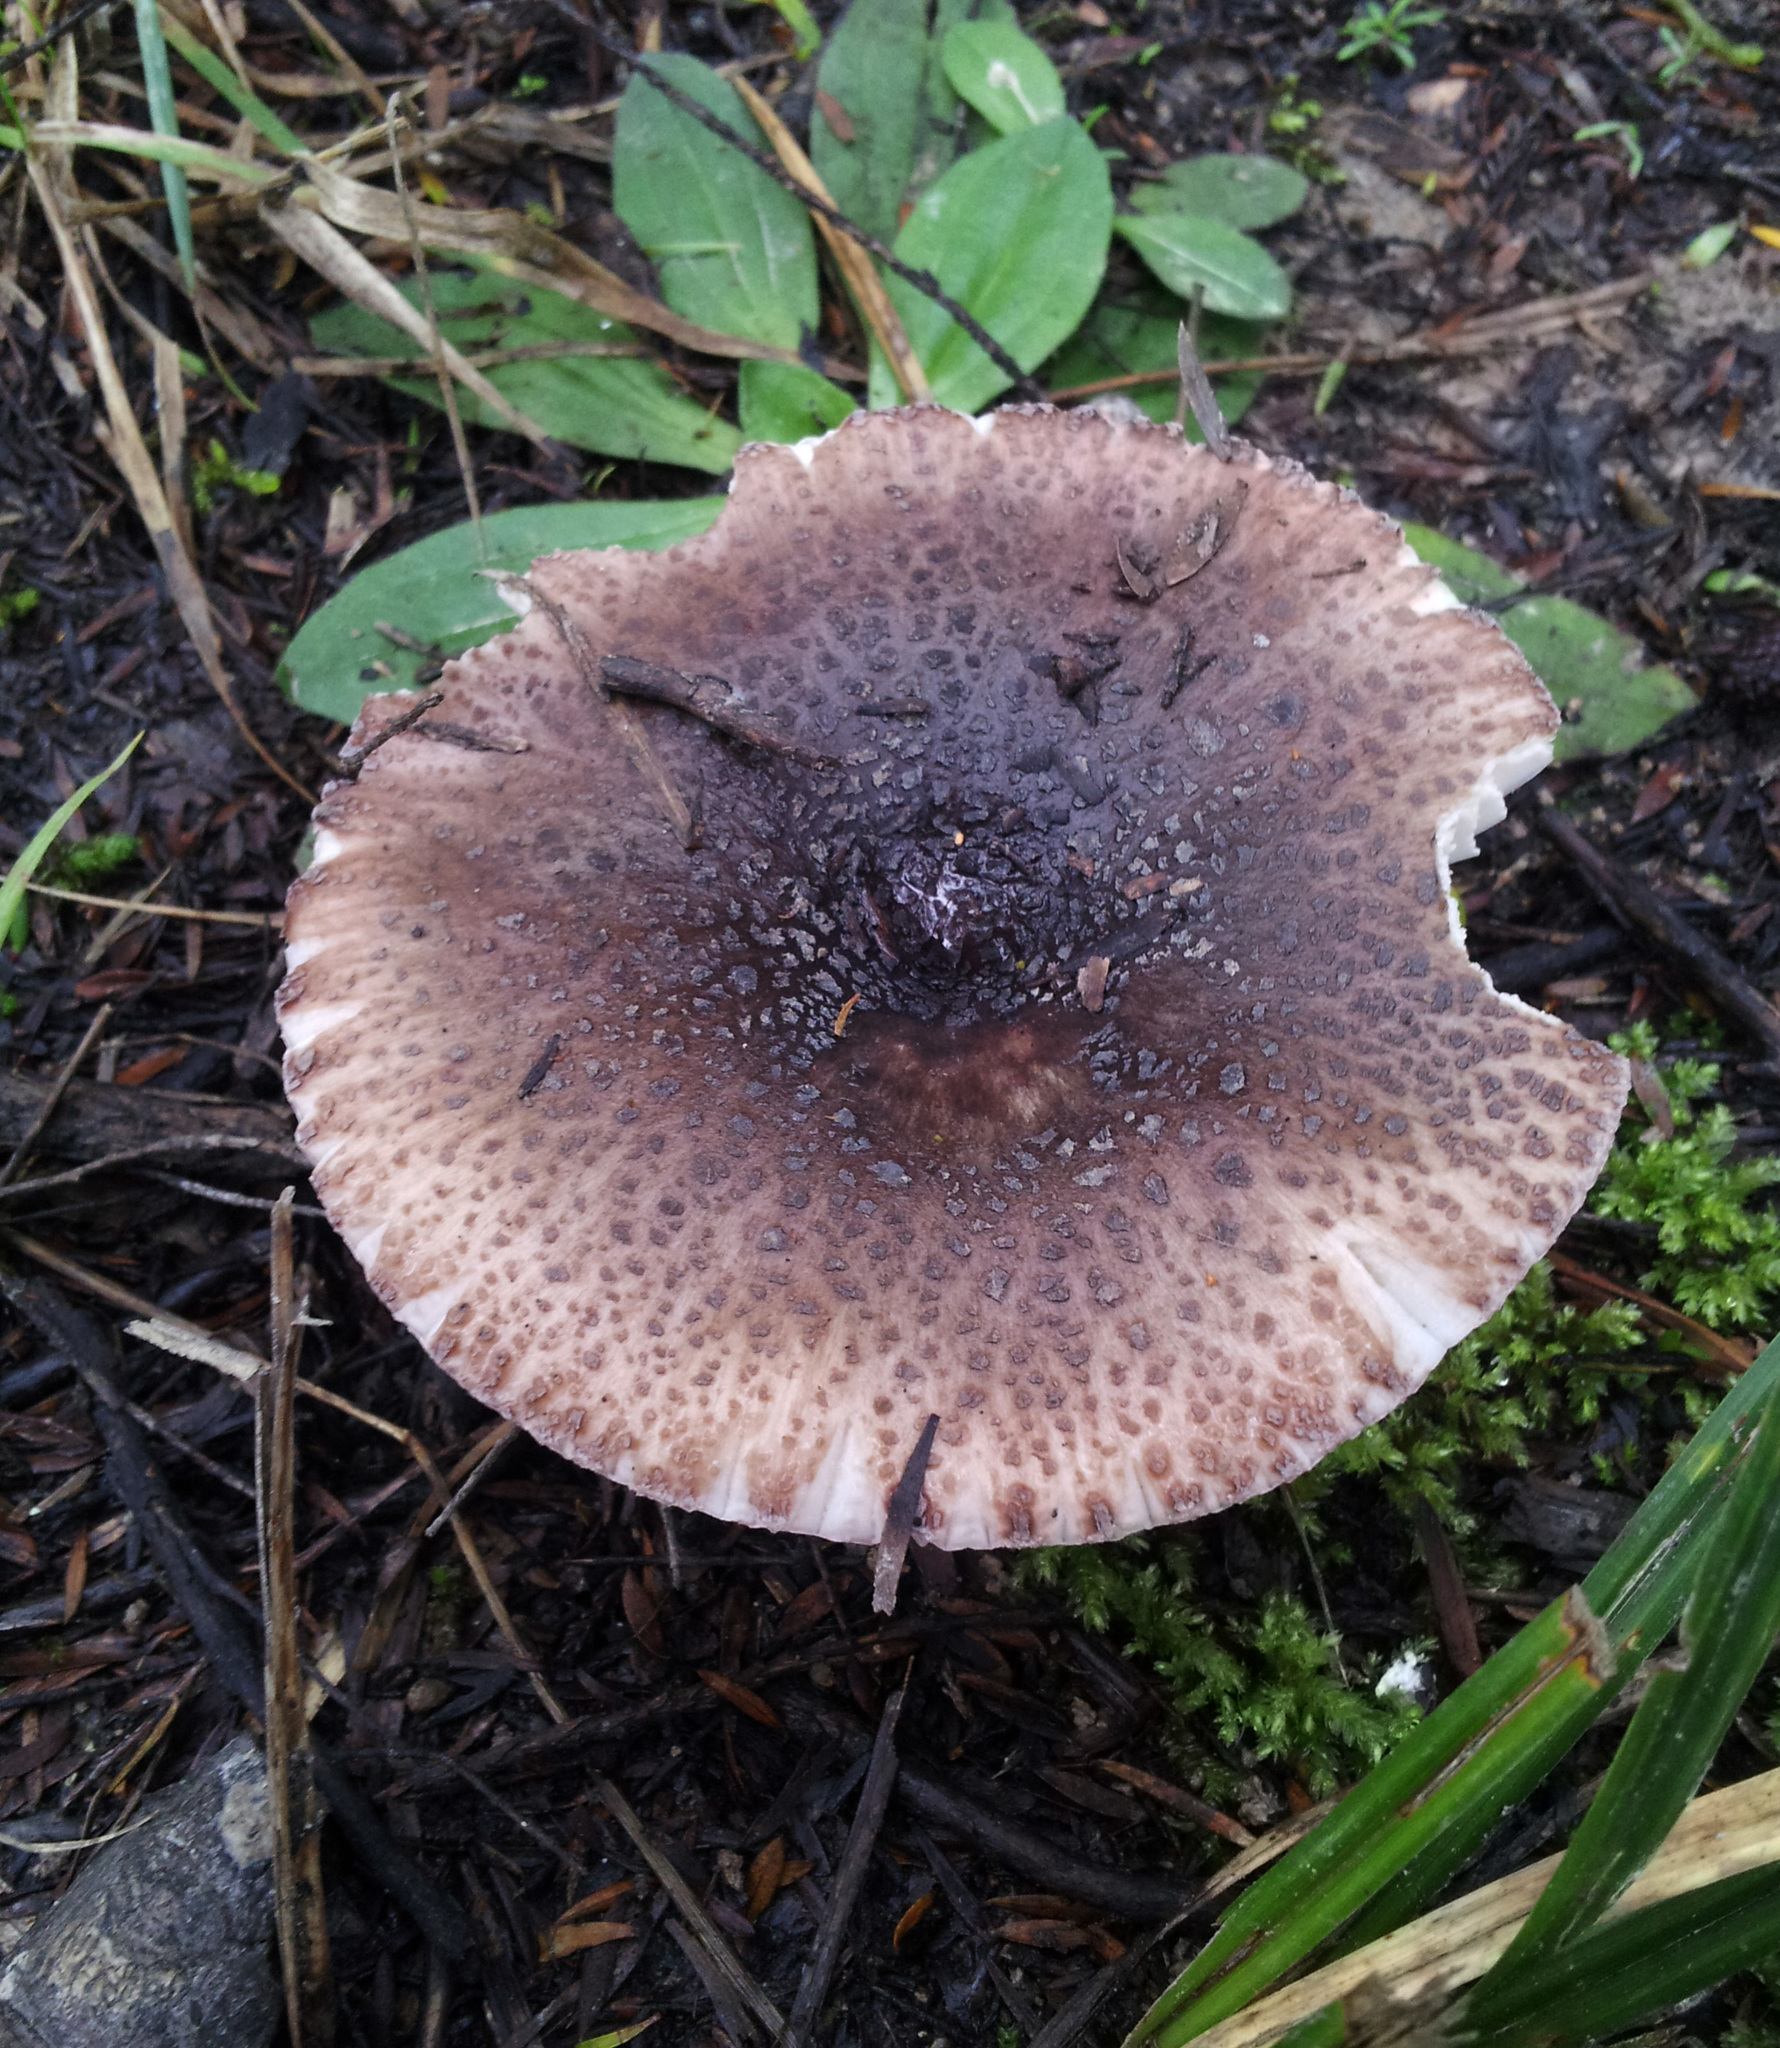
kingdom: Fungi
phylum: Basidiomycota
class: Agaricomycetes
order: Russulales
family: Russulaceae
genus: Russula
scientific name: Russula griseoviridis
